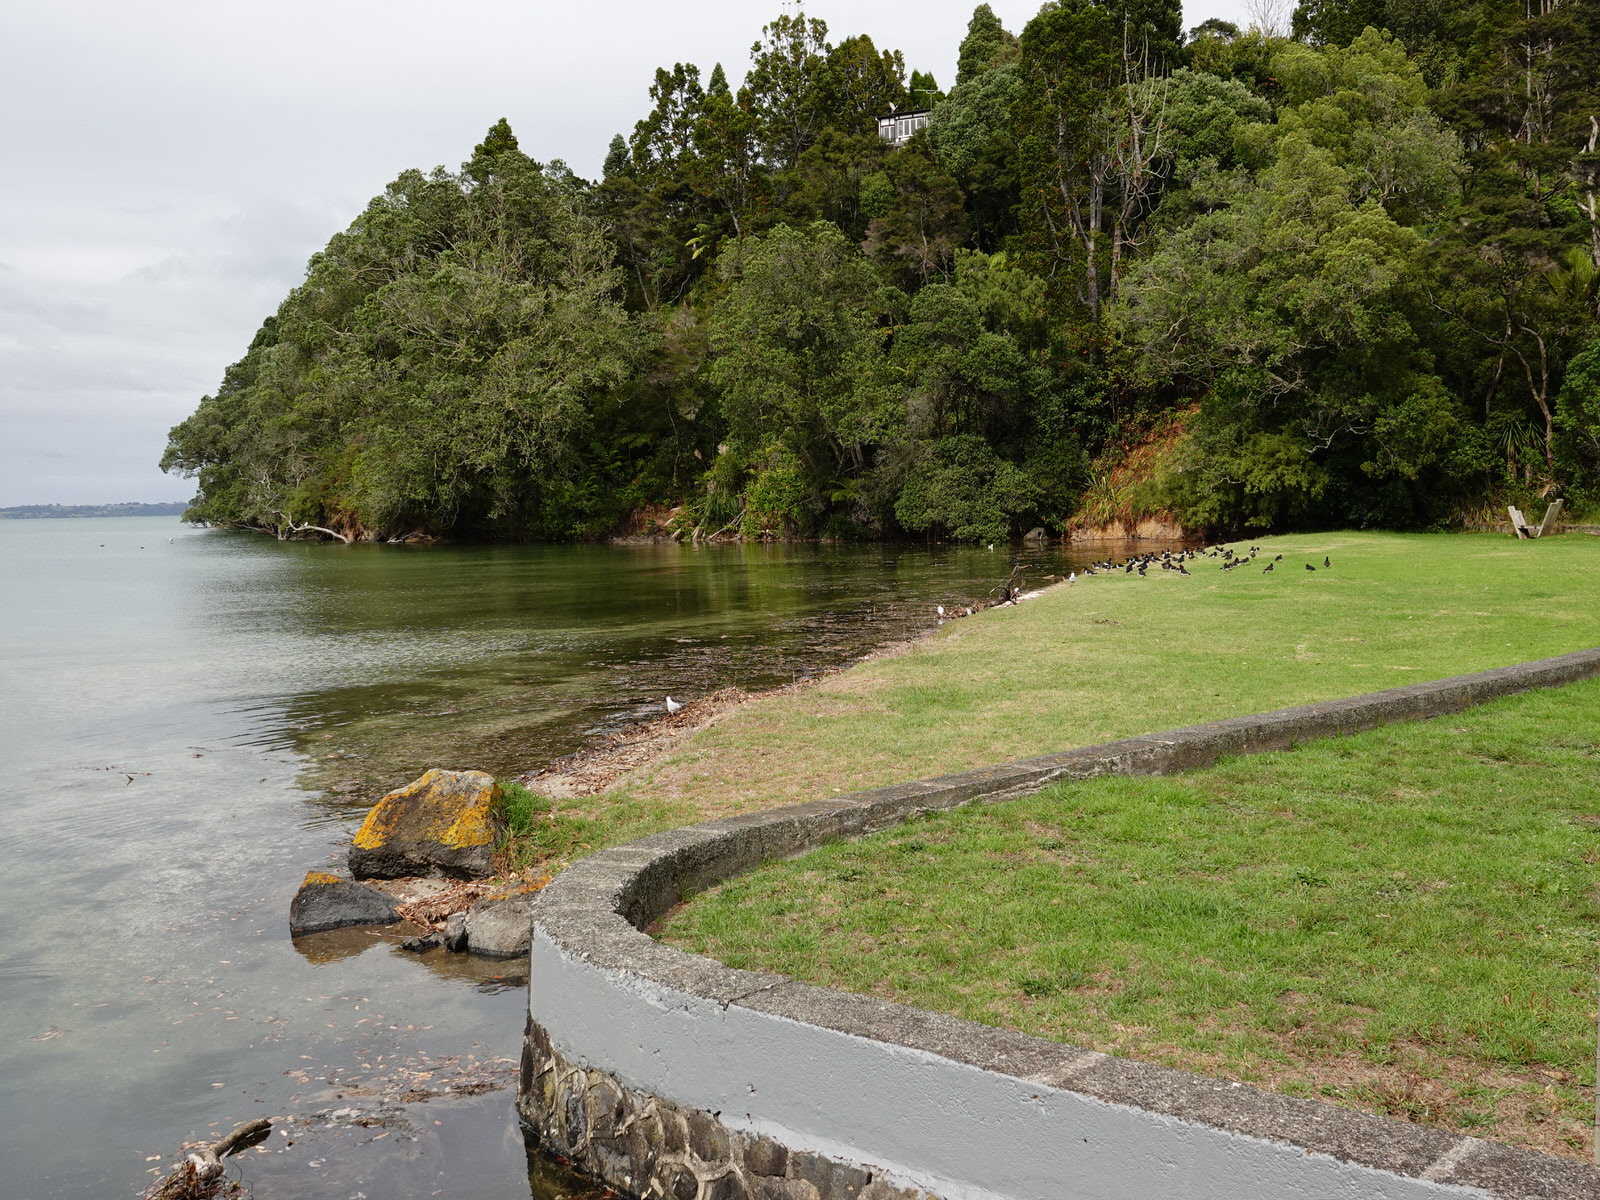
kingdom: Animalia
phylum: Chordata
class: Aves
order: Charadriiformes
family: Haematopodidae
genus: Haematopus
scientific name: Haematopus finschi
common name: South island oystercatcher
